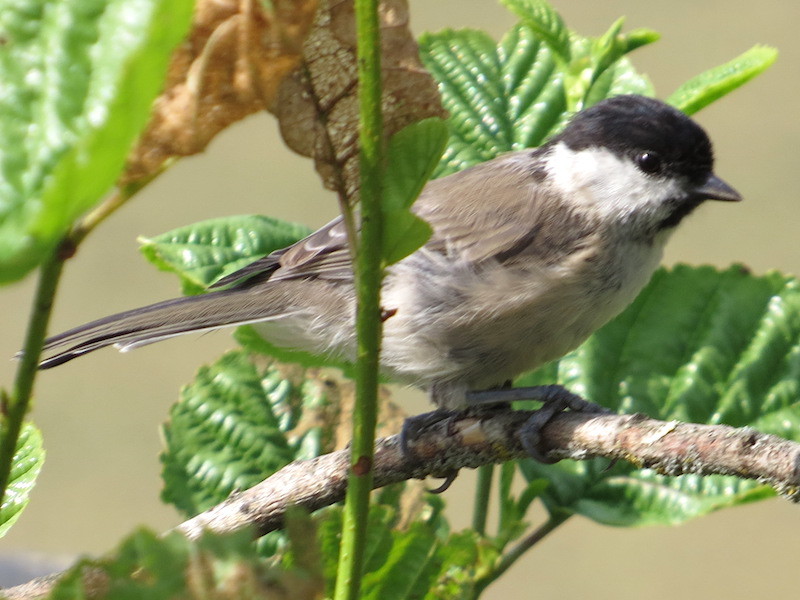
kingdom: Animalia
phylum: Chordata
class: Aves
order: Passeriformes
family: Paridae
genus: Poecile
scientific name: Poecile palustris
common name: Marsh tit
